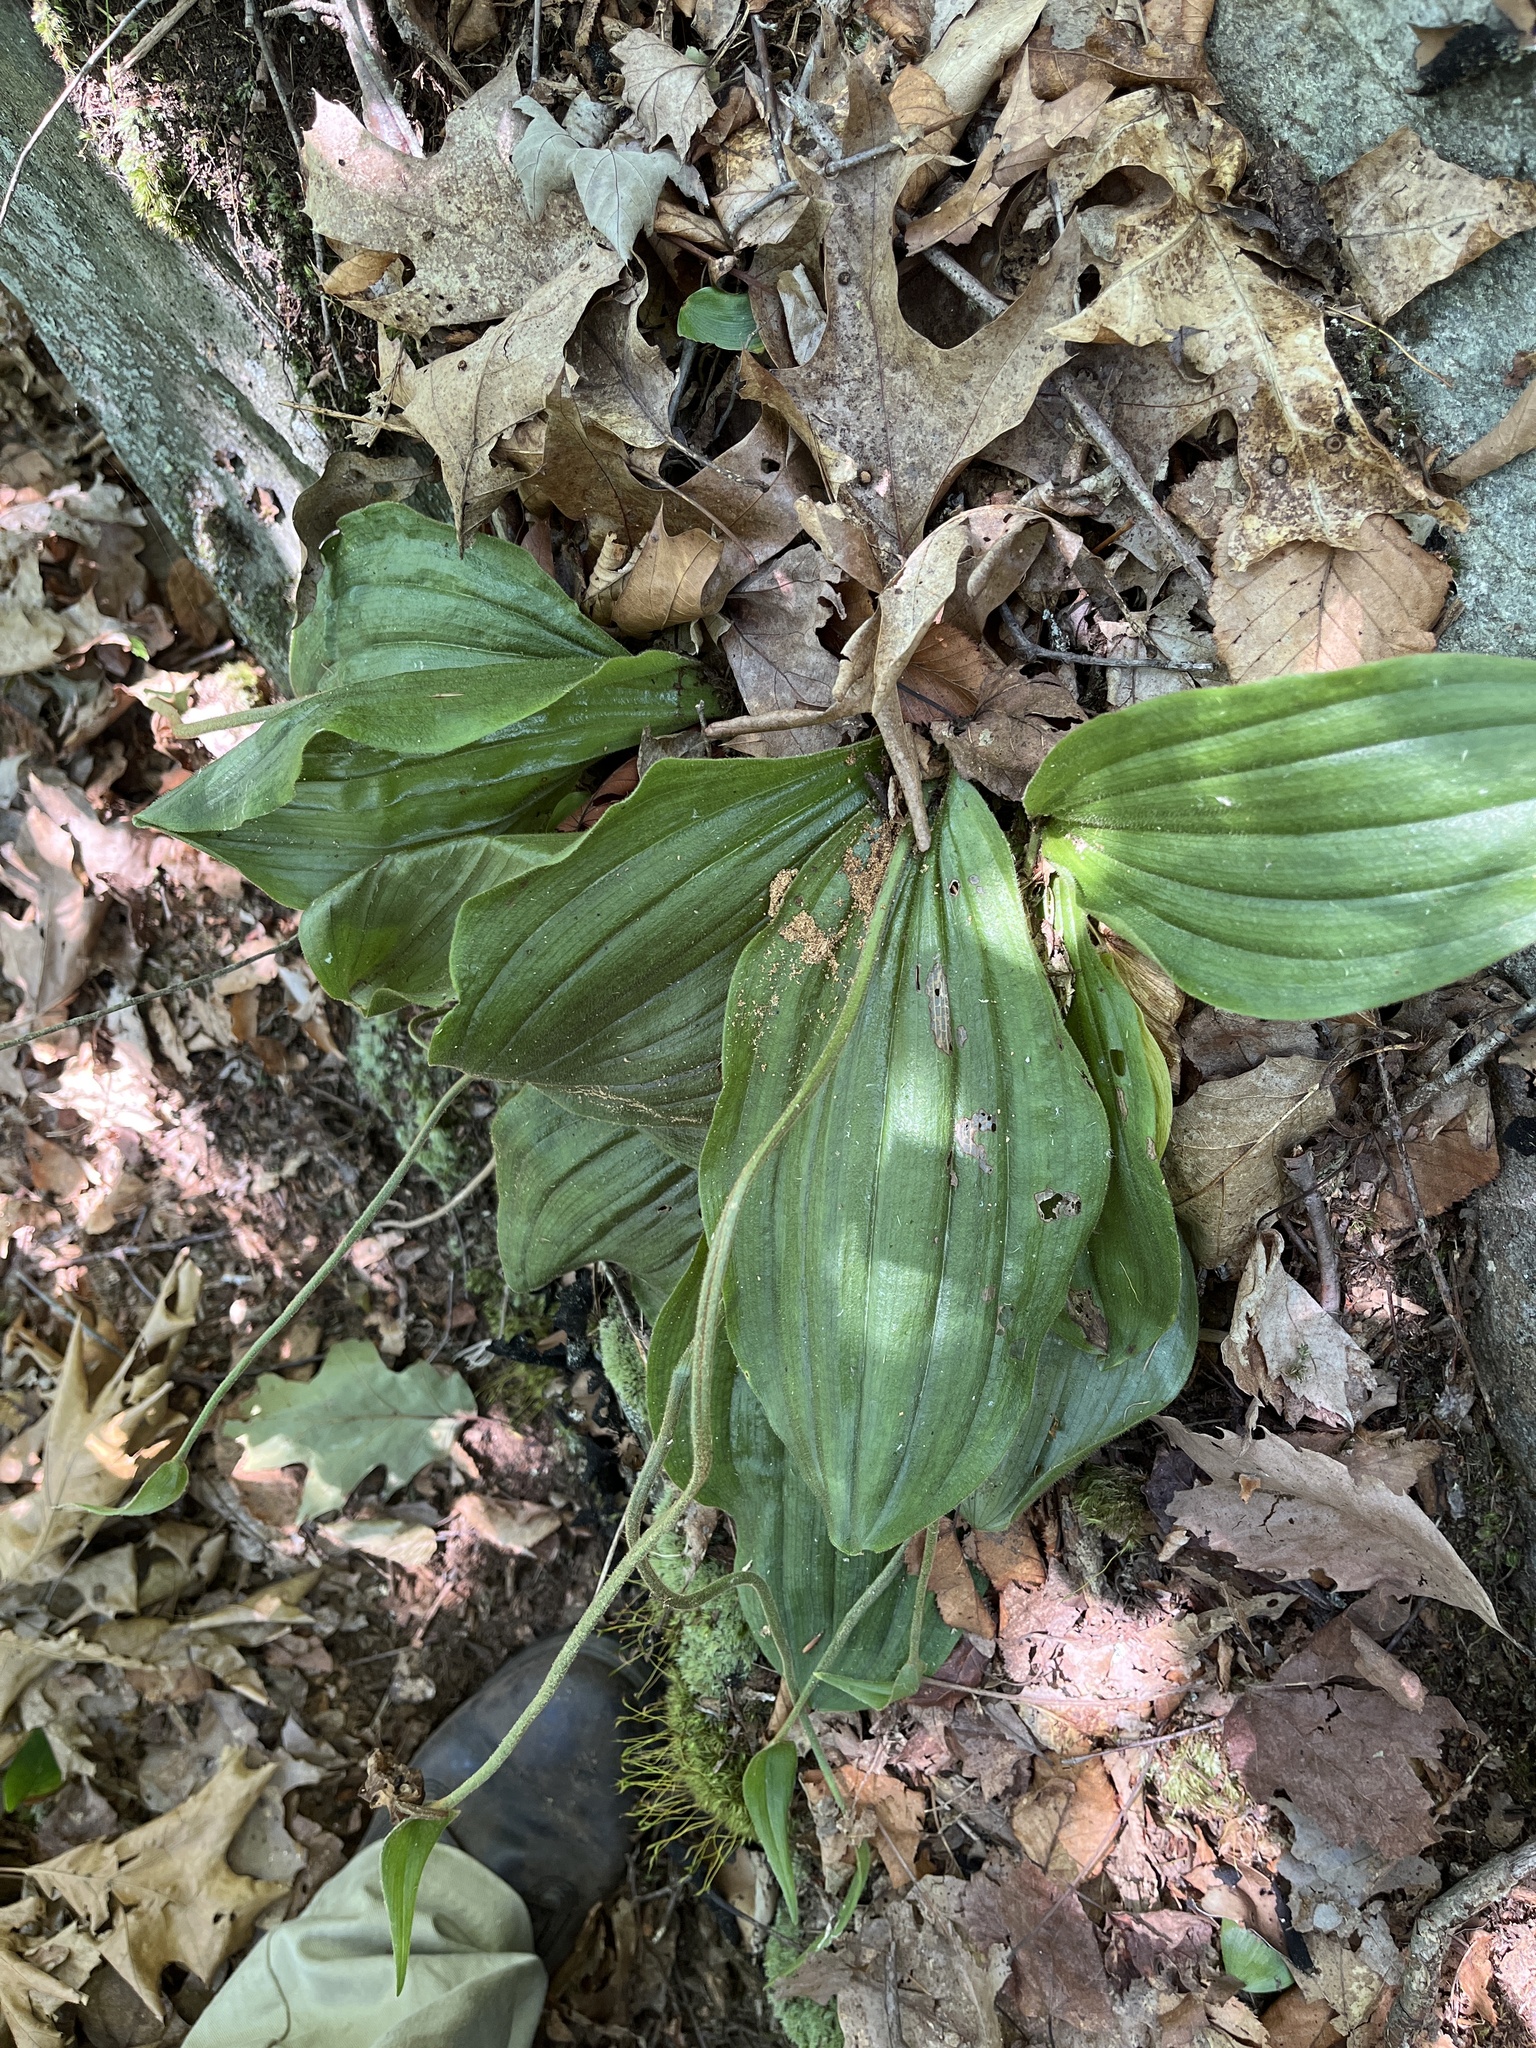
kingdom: Plantae
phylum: Tracheophyta
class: Liliopsida
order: Asparagales
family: Orchidaceae
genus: Cypripedium
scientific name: Cypripedium acaule
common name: Pink lady's-slipper
